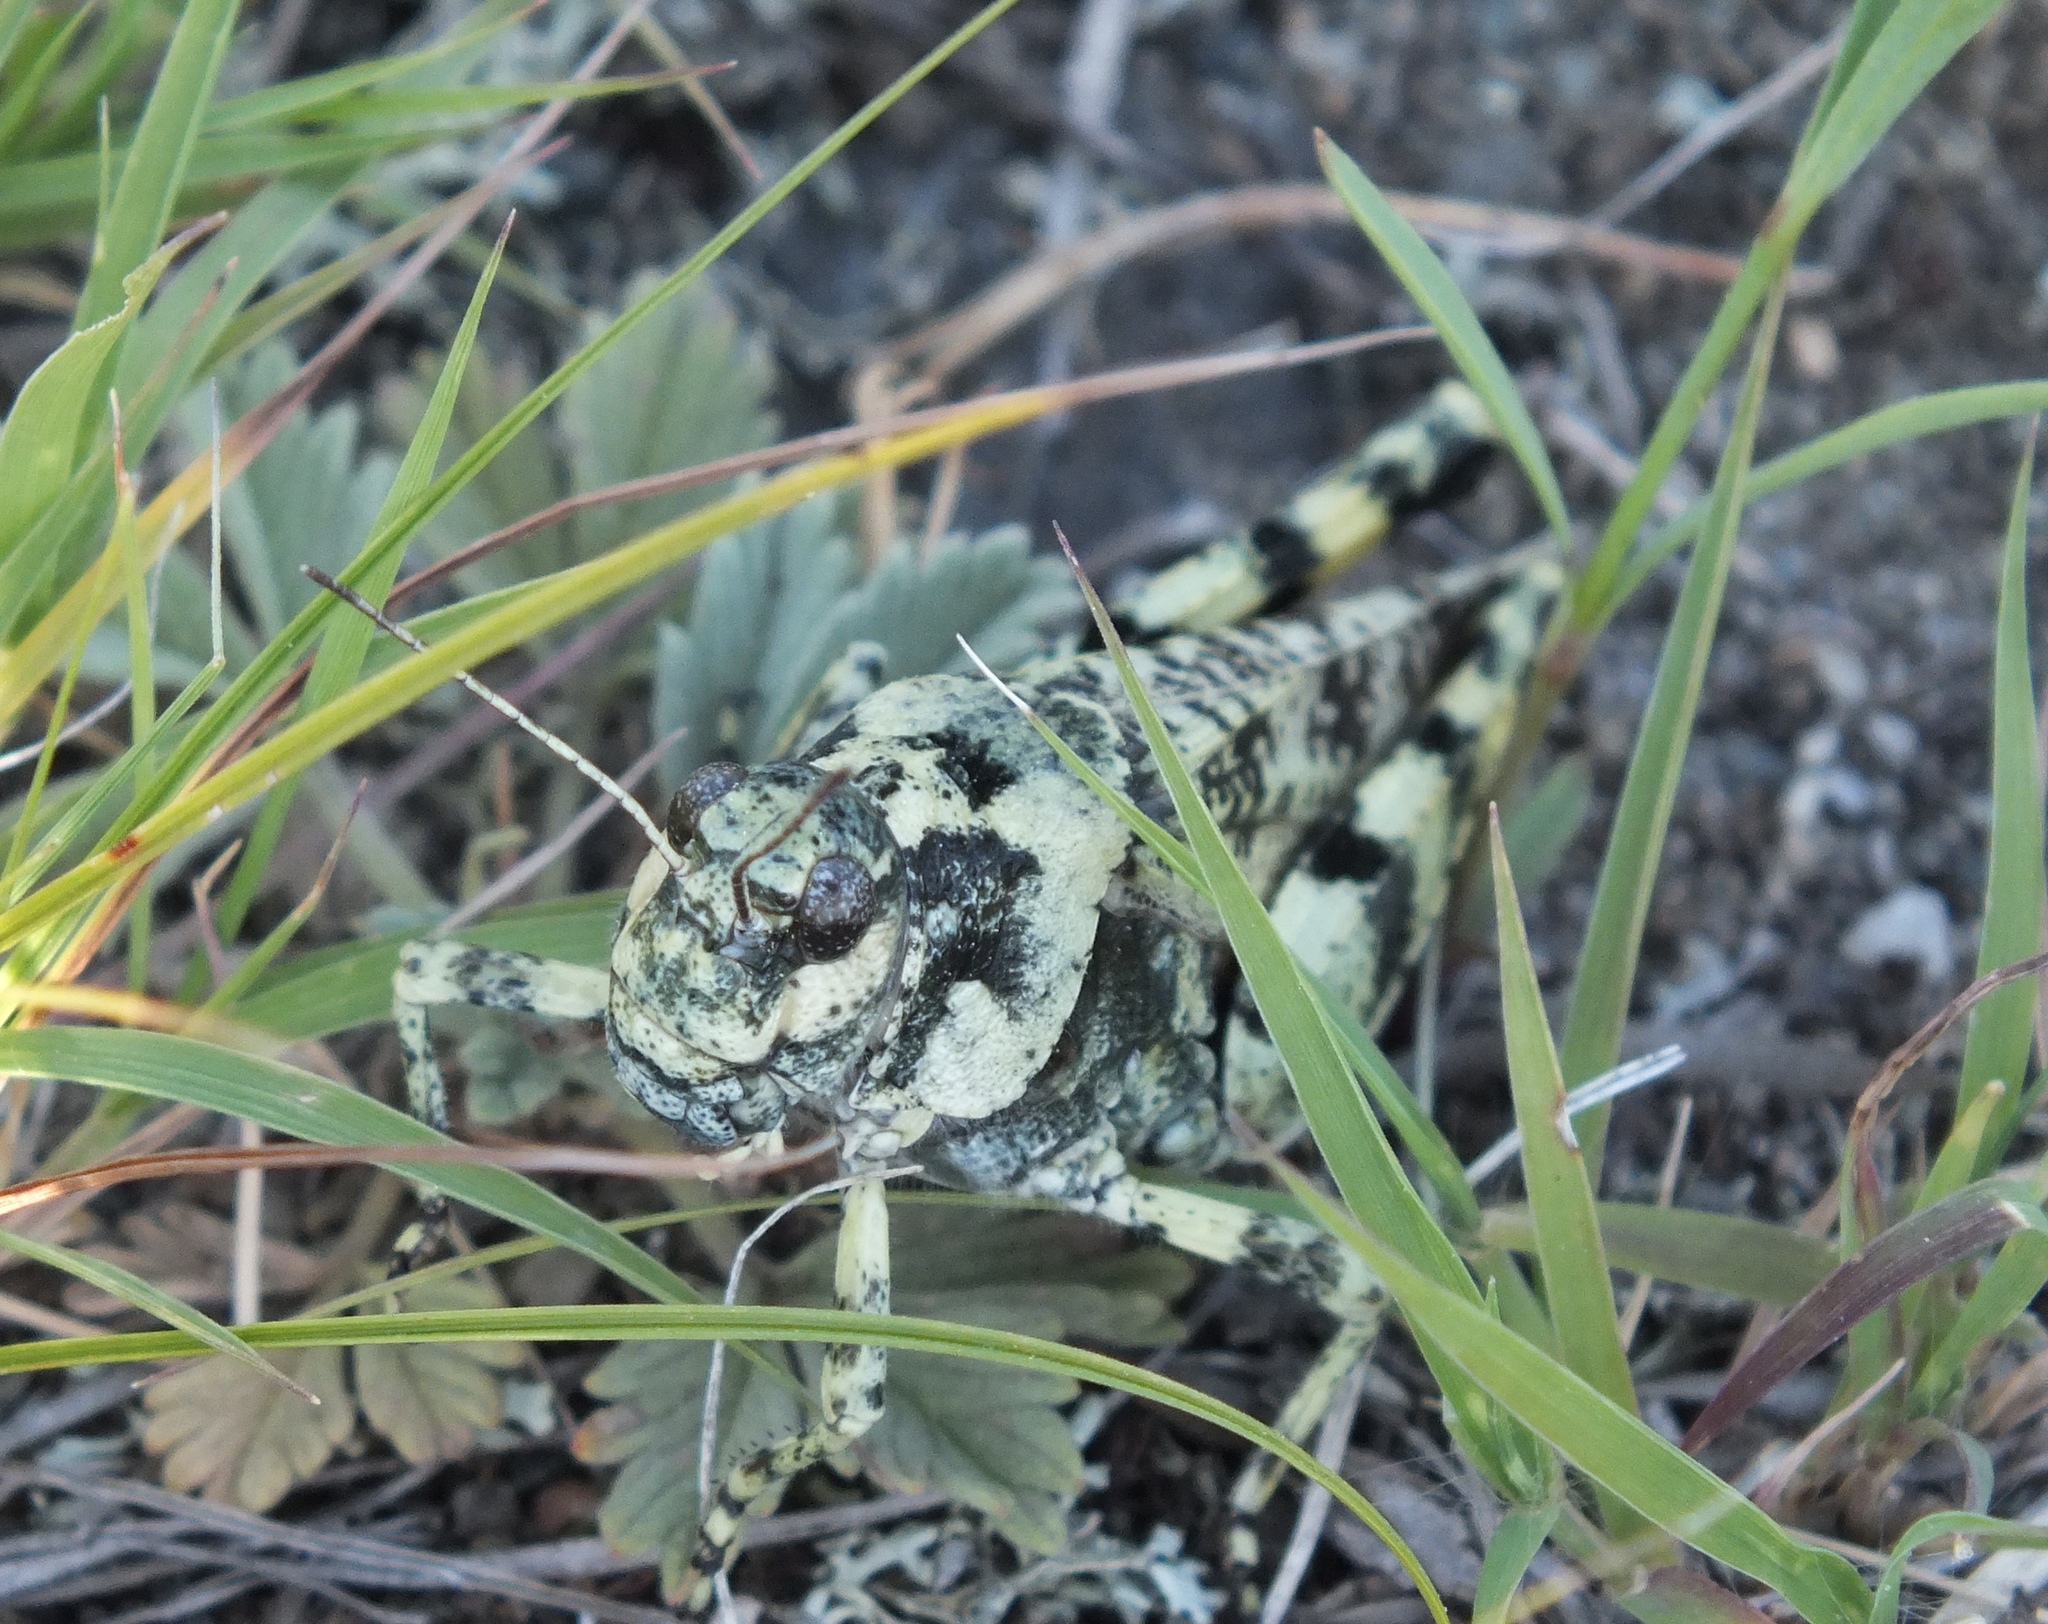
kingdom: Animalia
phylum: Arthropoda
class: Insecta
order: Orthoptera
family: Acrididae
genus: Angaracris
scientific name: Angaracris barabensis
